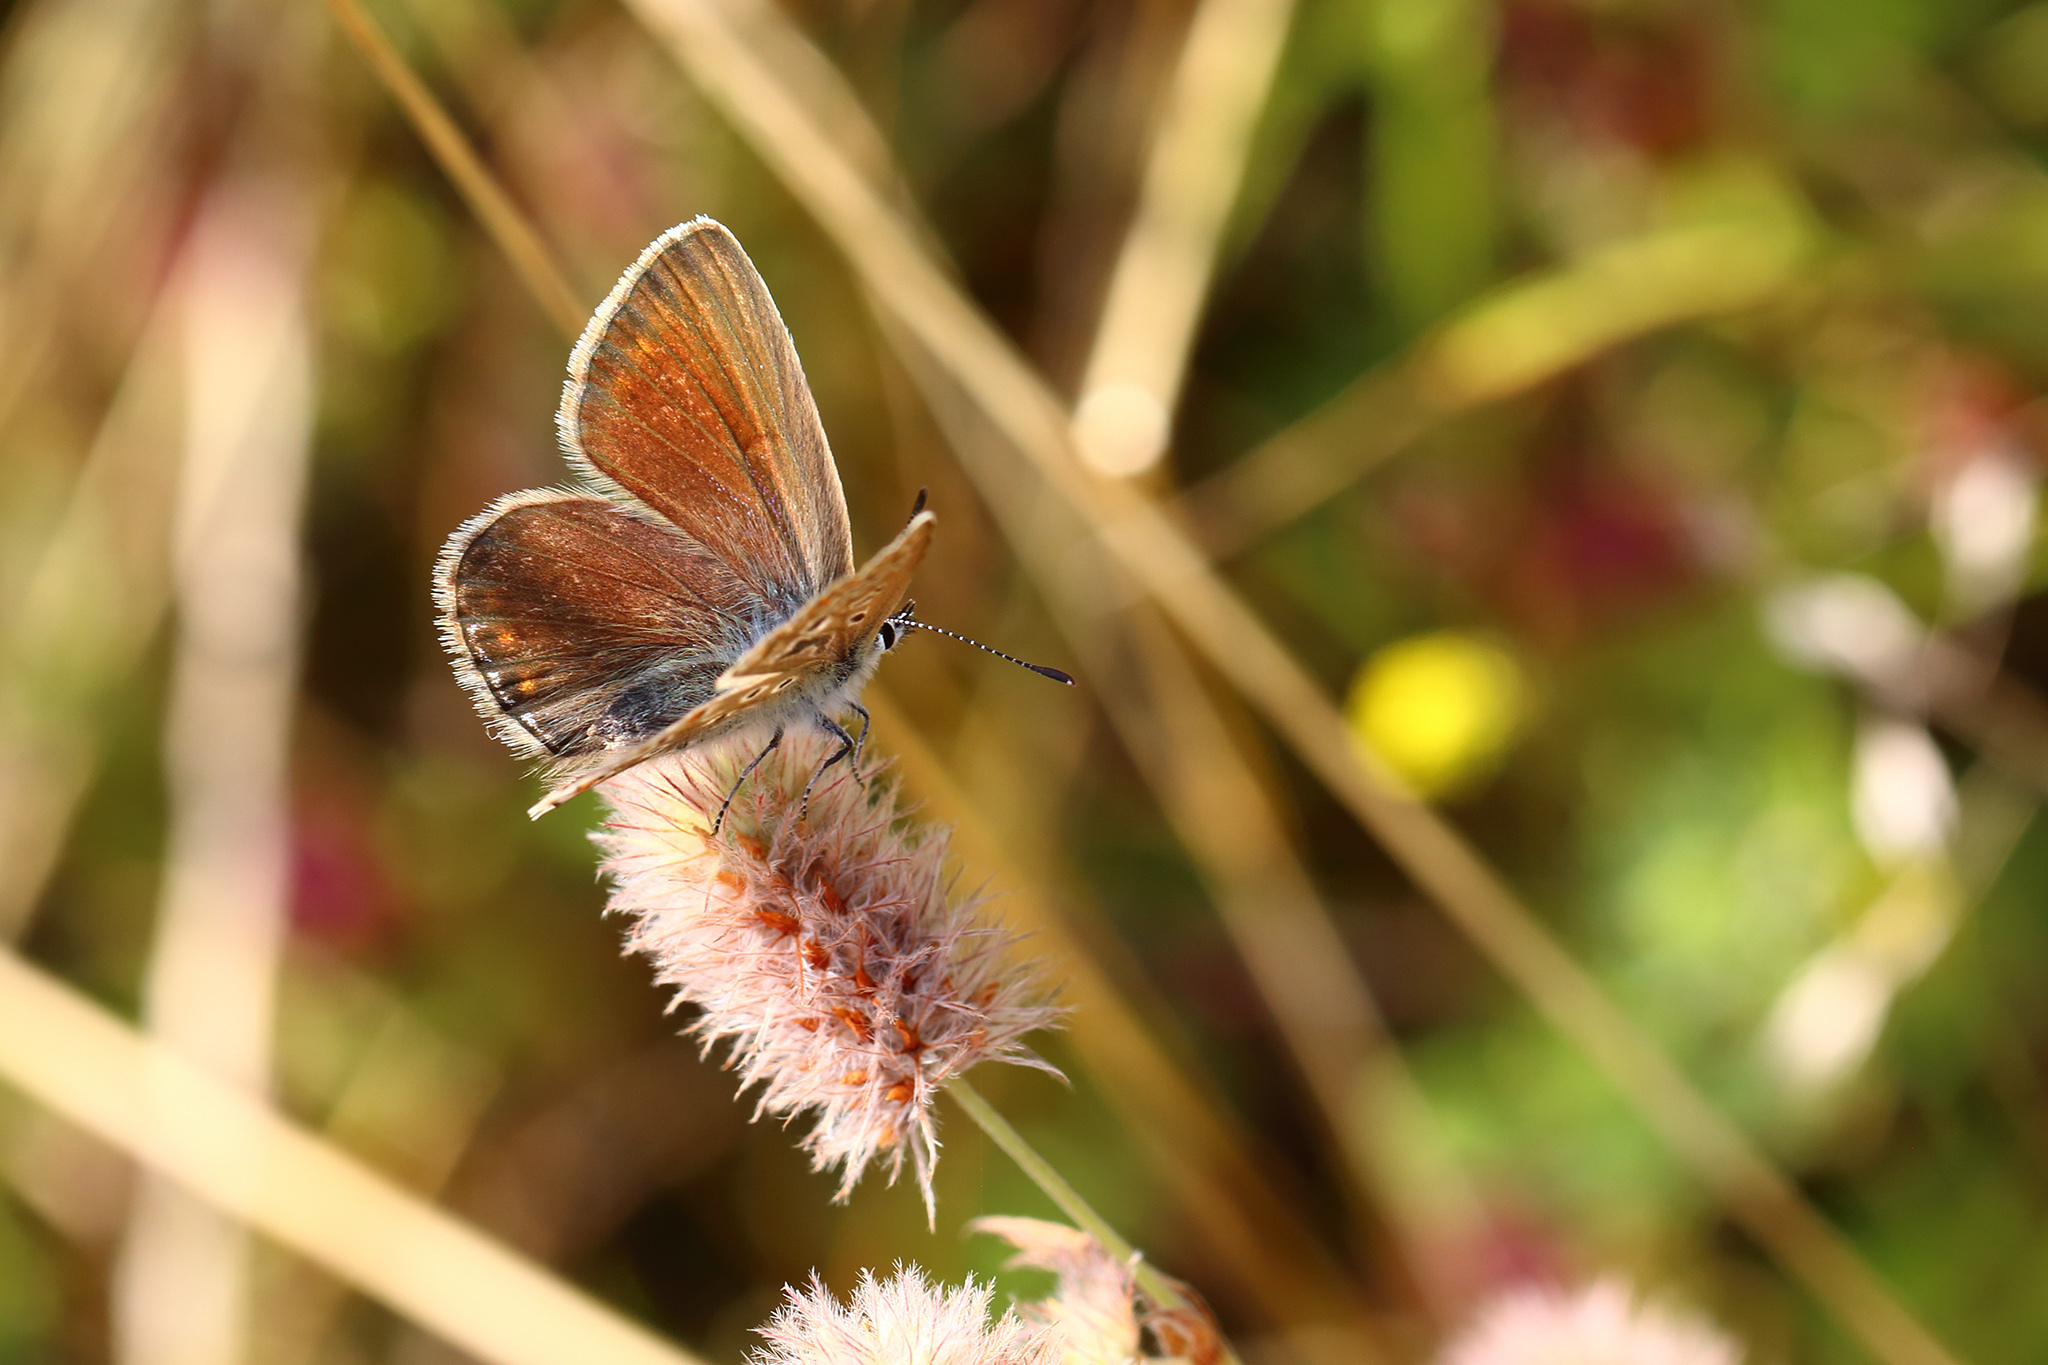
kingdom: Animalia
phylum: Arthropoda
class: Insecta
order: Lepidoptera
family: Lycaenidae
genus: Polyommatus
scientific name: Polyommatus icarus
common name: Common blue
